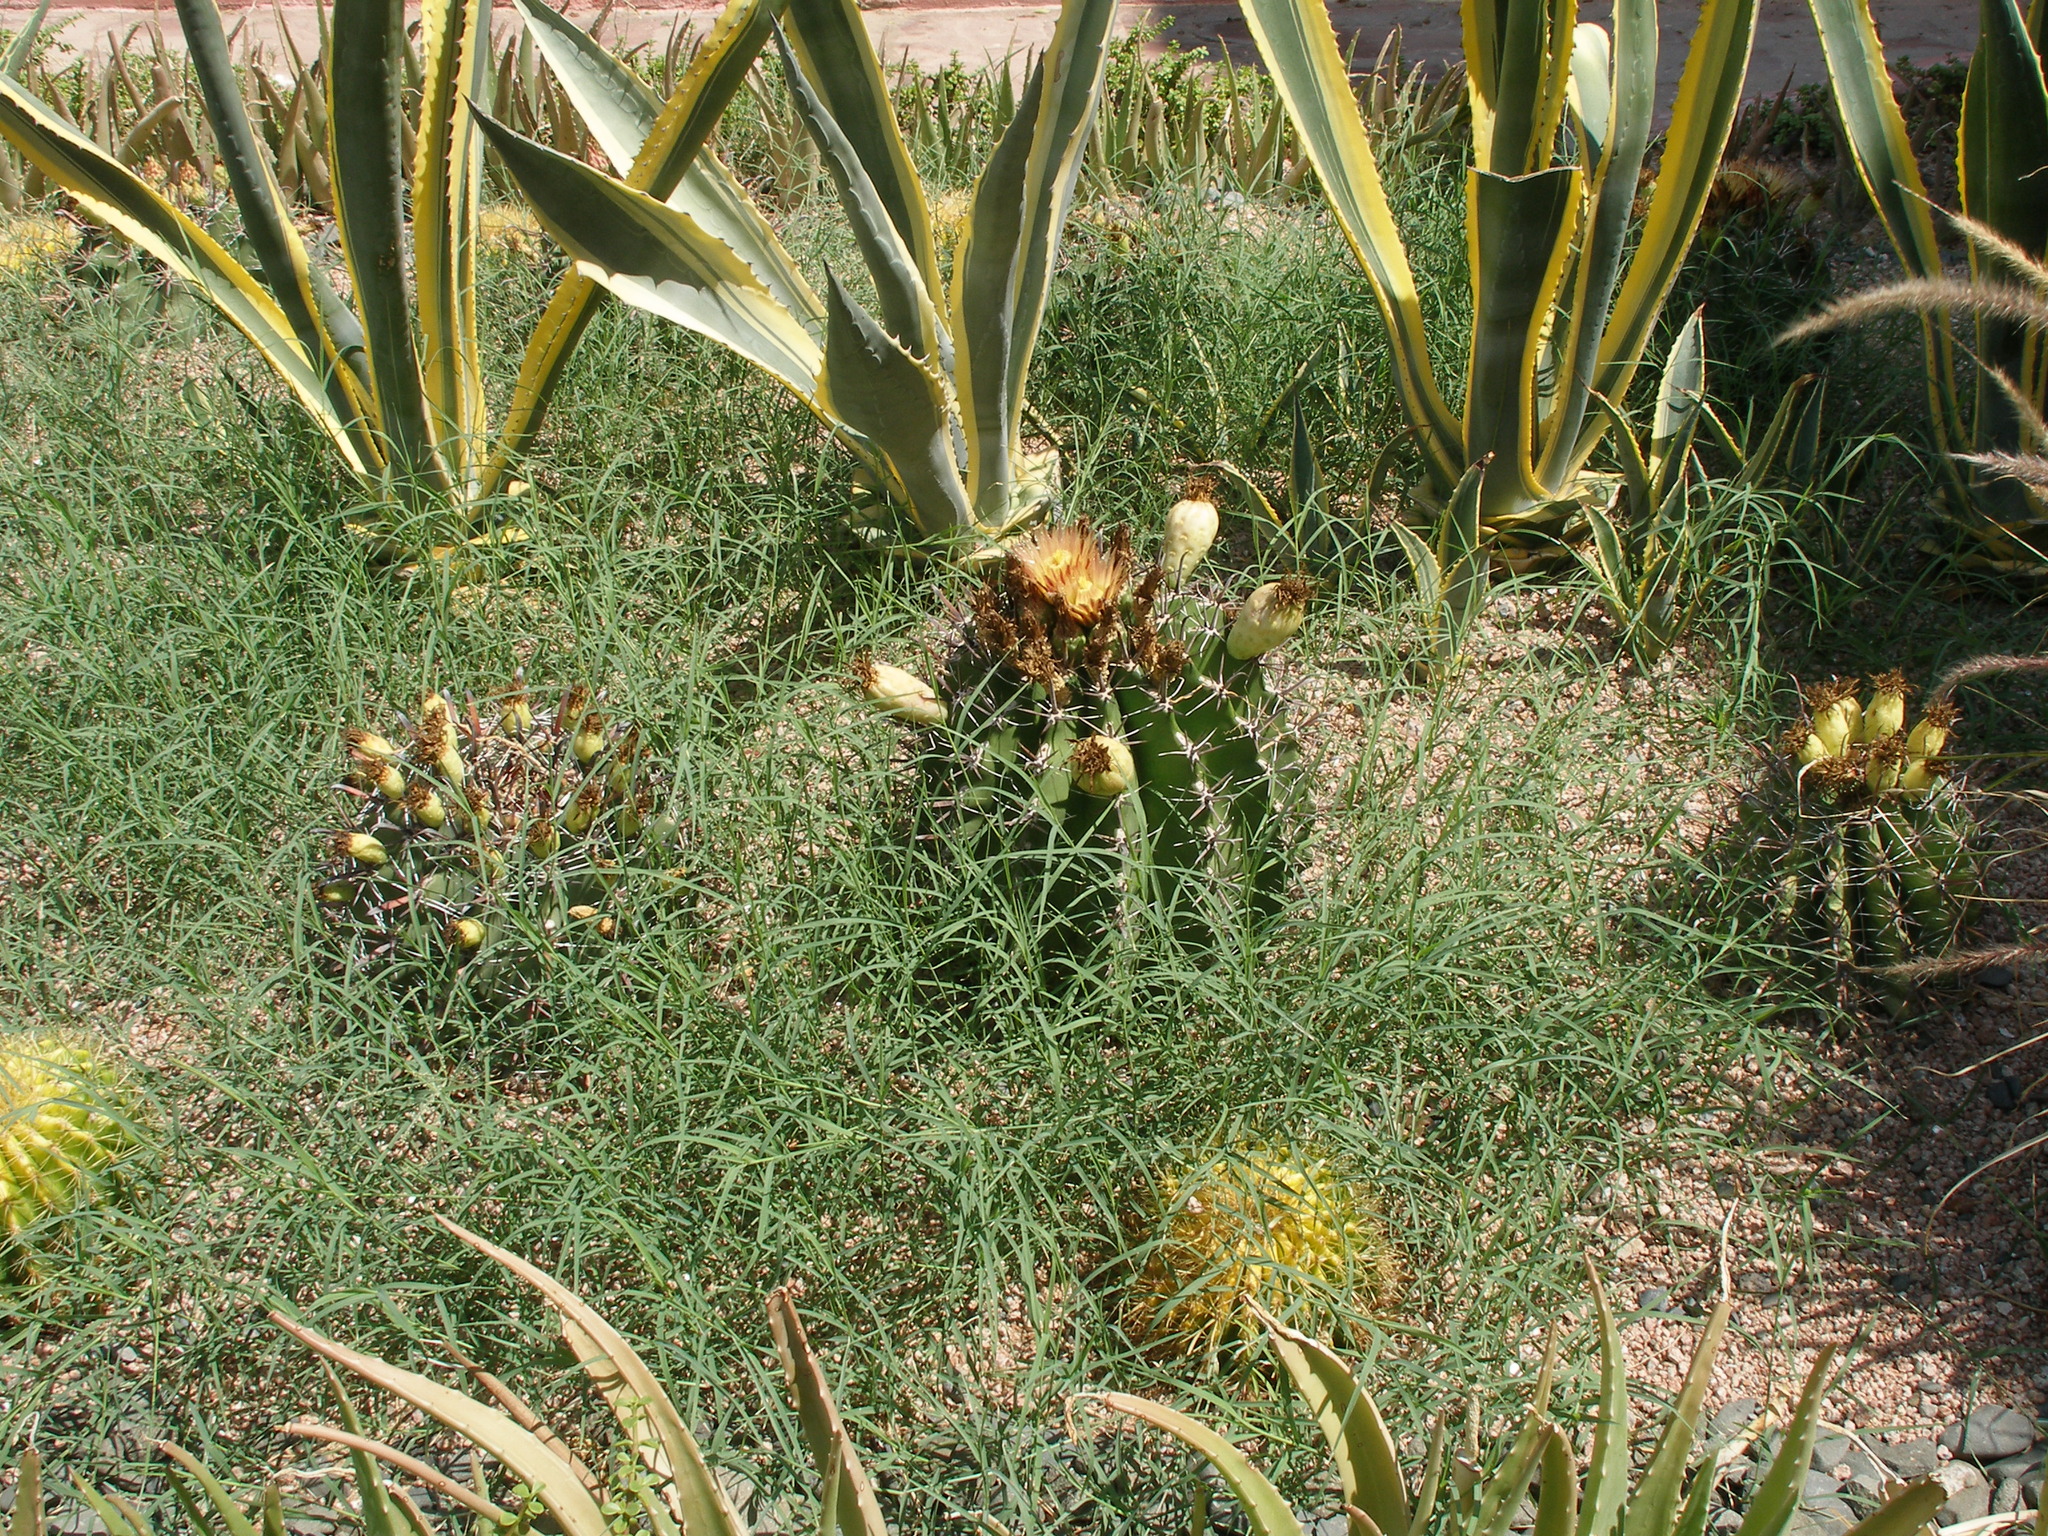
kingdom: Plantae
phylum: Tracheophyta
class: Magnoliopsida
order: Caryophyllales
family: Cactaceae
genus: Ferocactus
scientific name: Ferocactus wislizeni
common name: Candy barrel cactus
